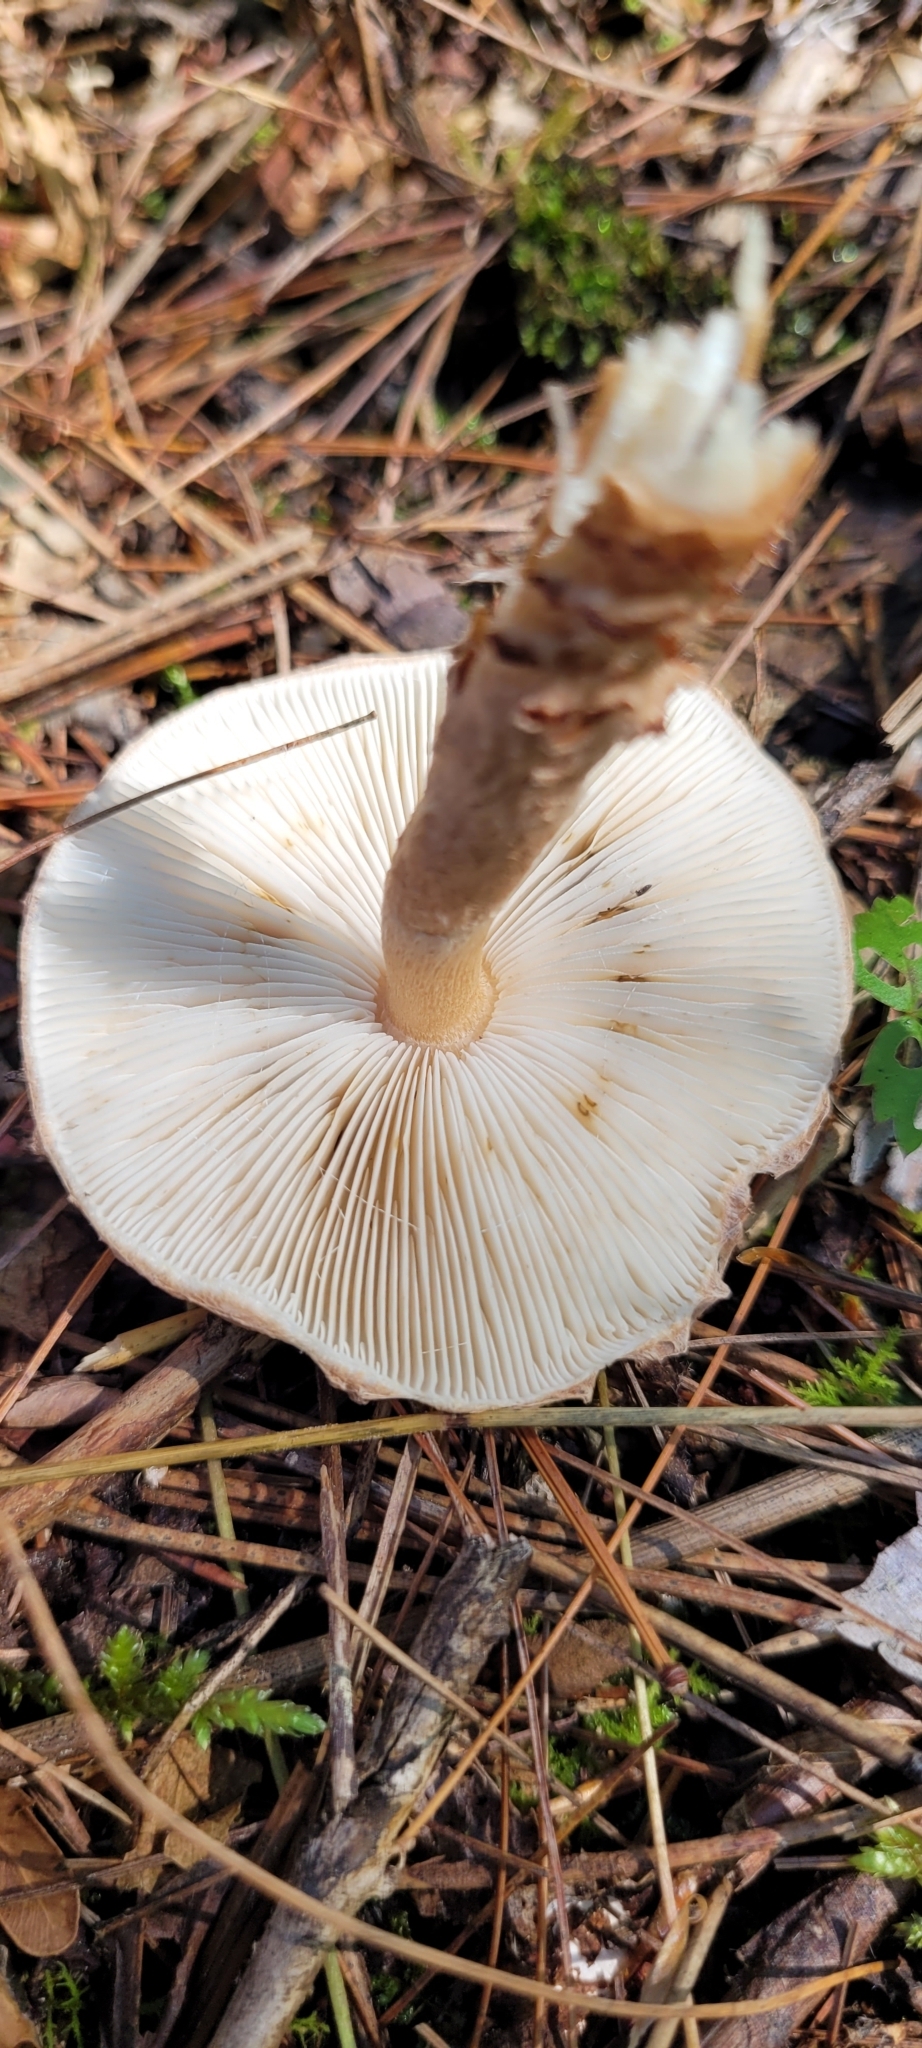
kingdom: Fungi
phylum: Basidiomycota
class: Agaricomycetes
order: Agaricales
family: Agaricaceae
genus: Lepiota
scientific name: Lepiota cortinarius
